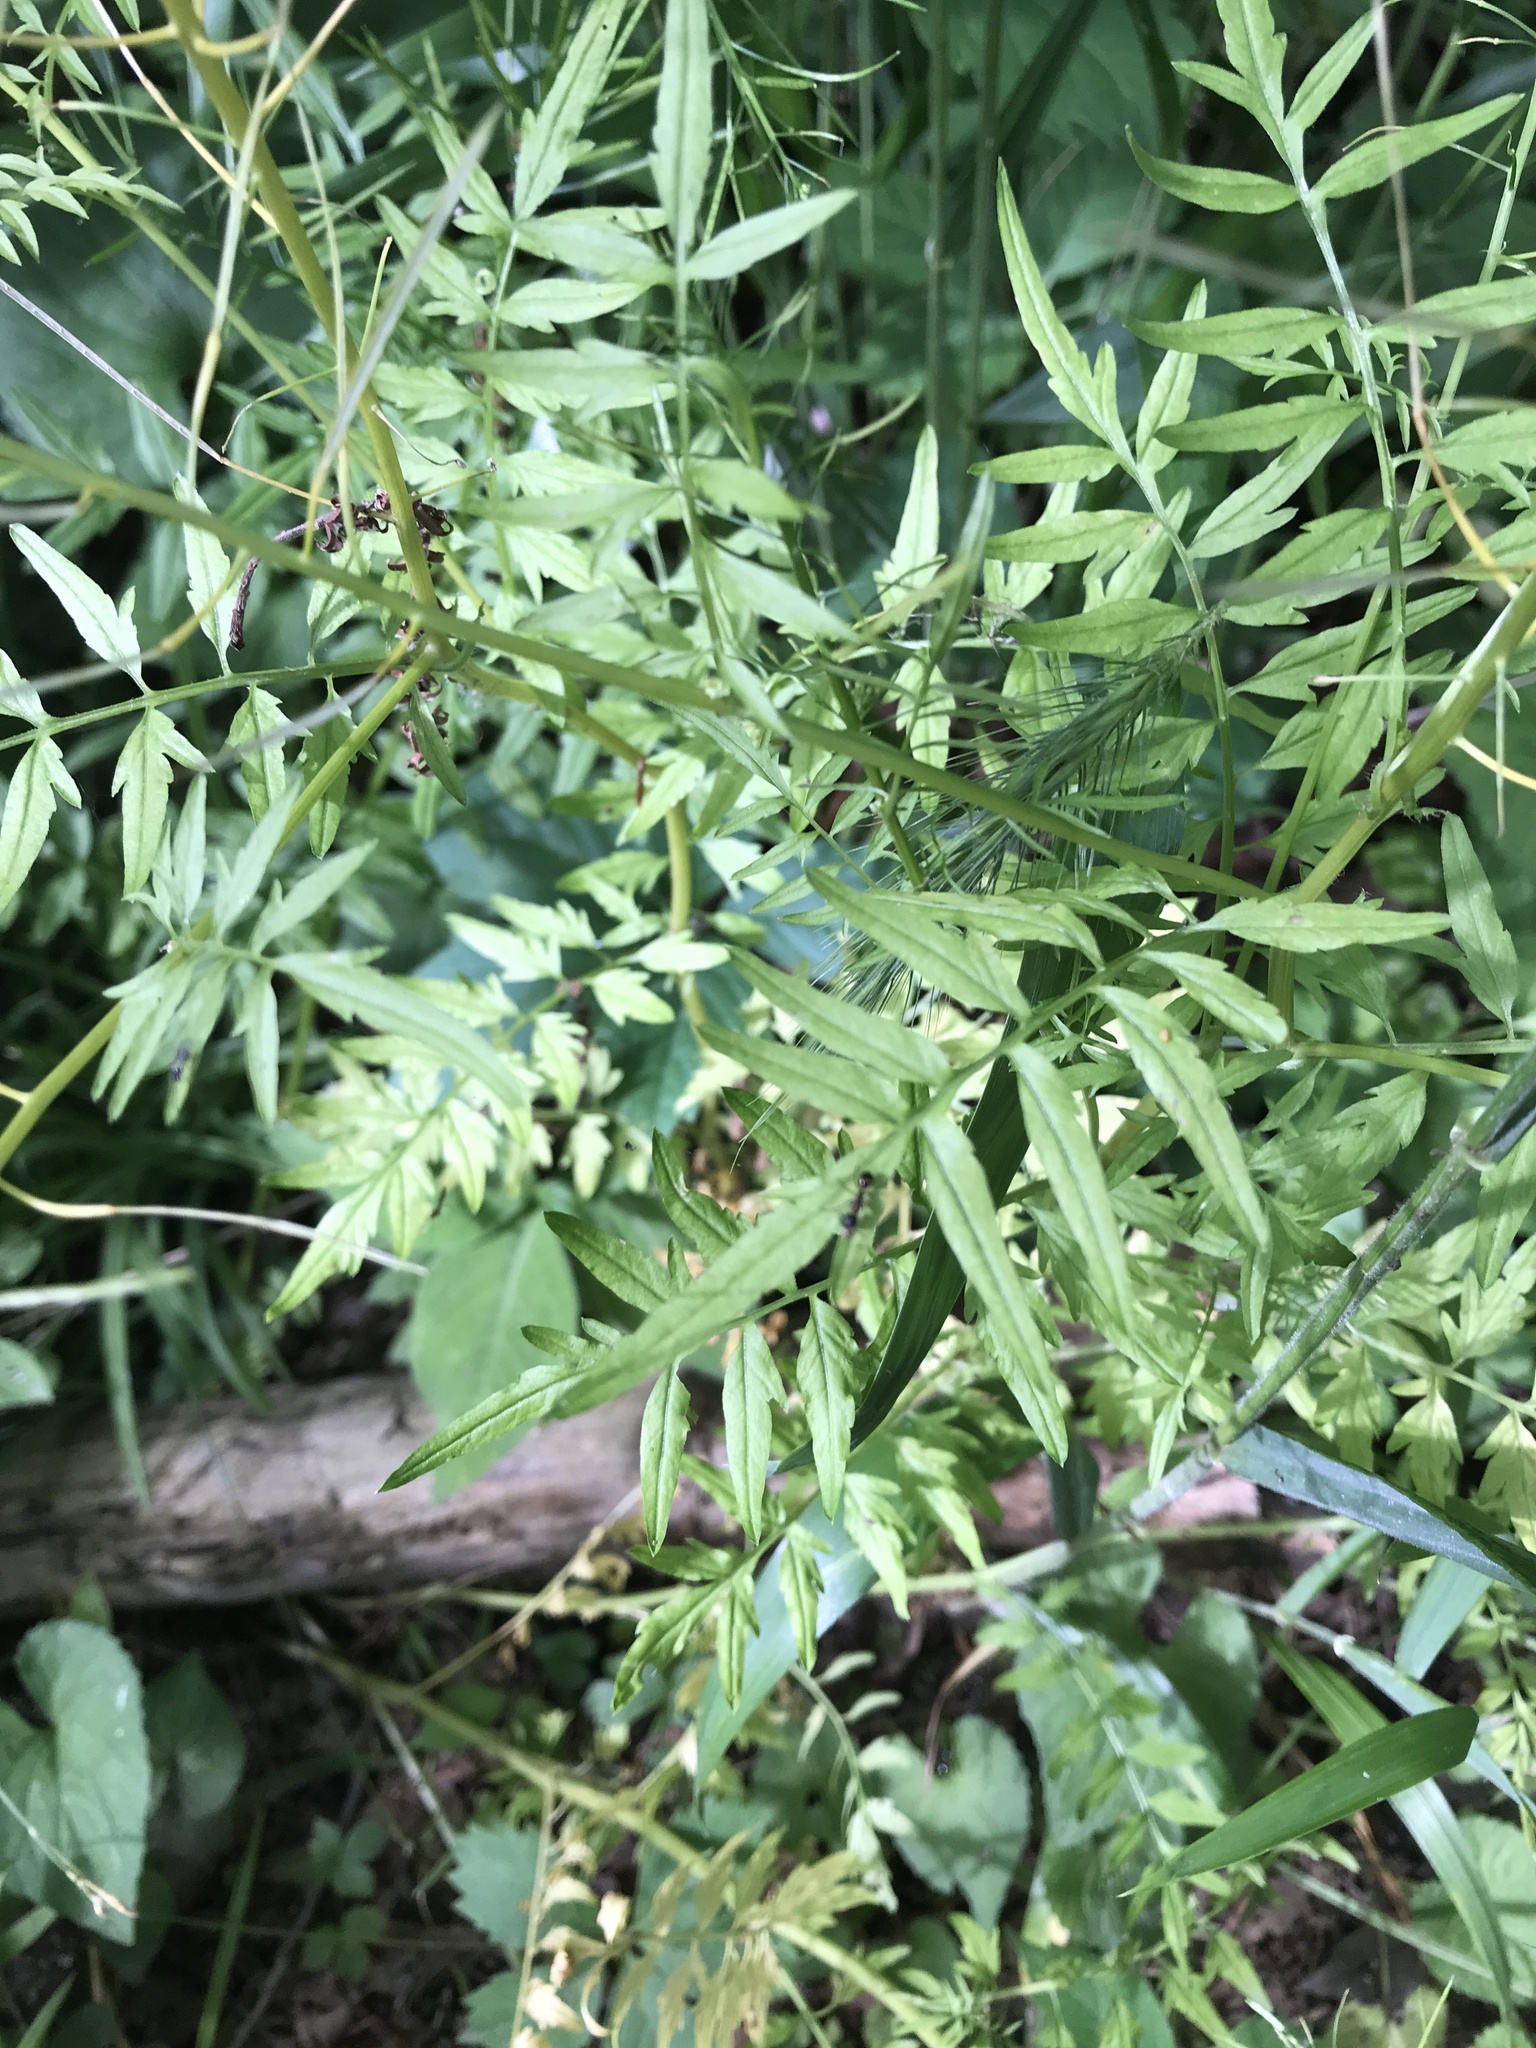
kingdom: Plantae
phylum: Tracheophyta
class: Magnoliopsida
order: Brassicales
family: Brassicaceae
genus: Cardamine
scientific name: Cardamine impatiens
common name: Narrow-leaved bitter-cress
